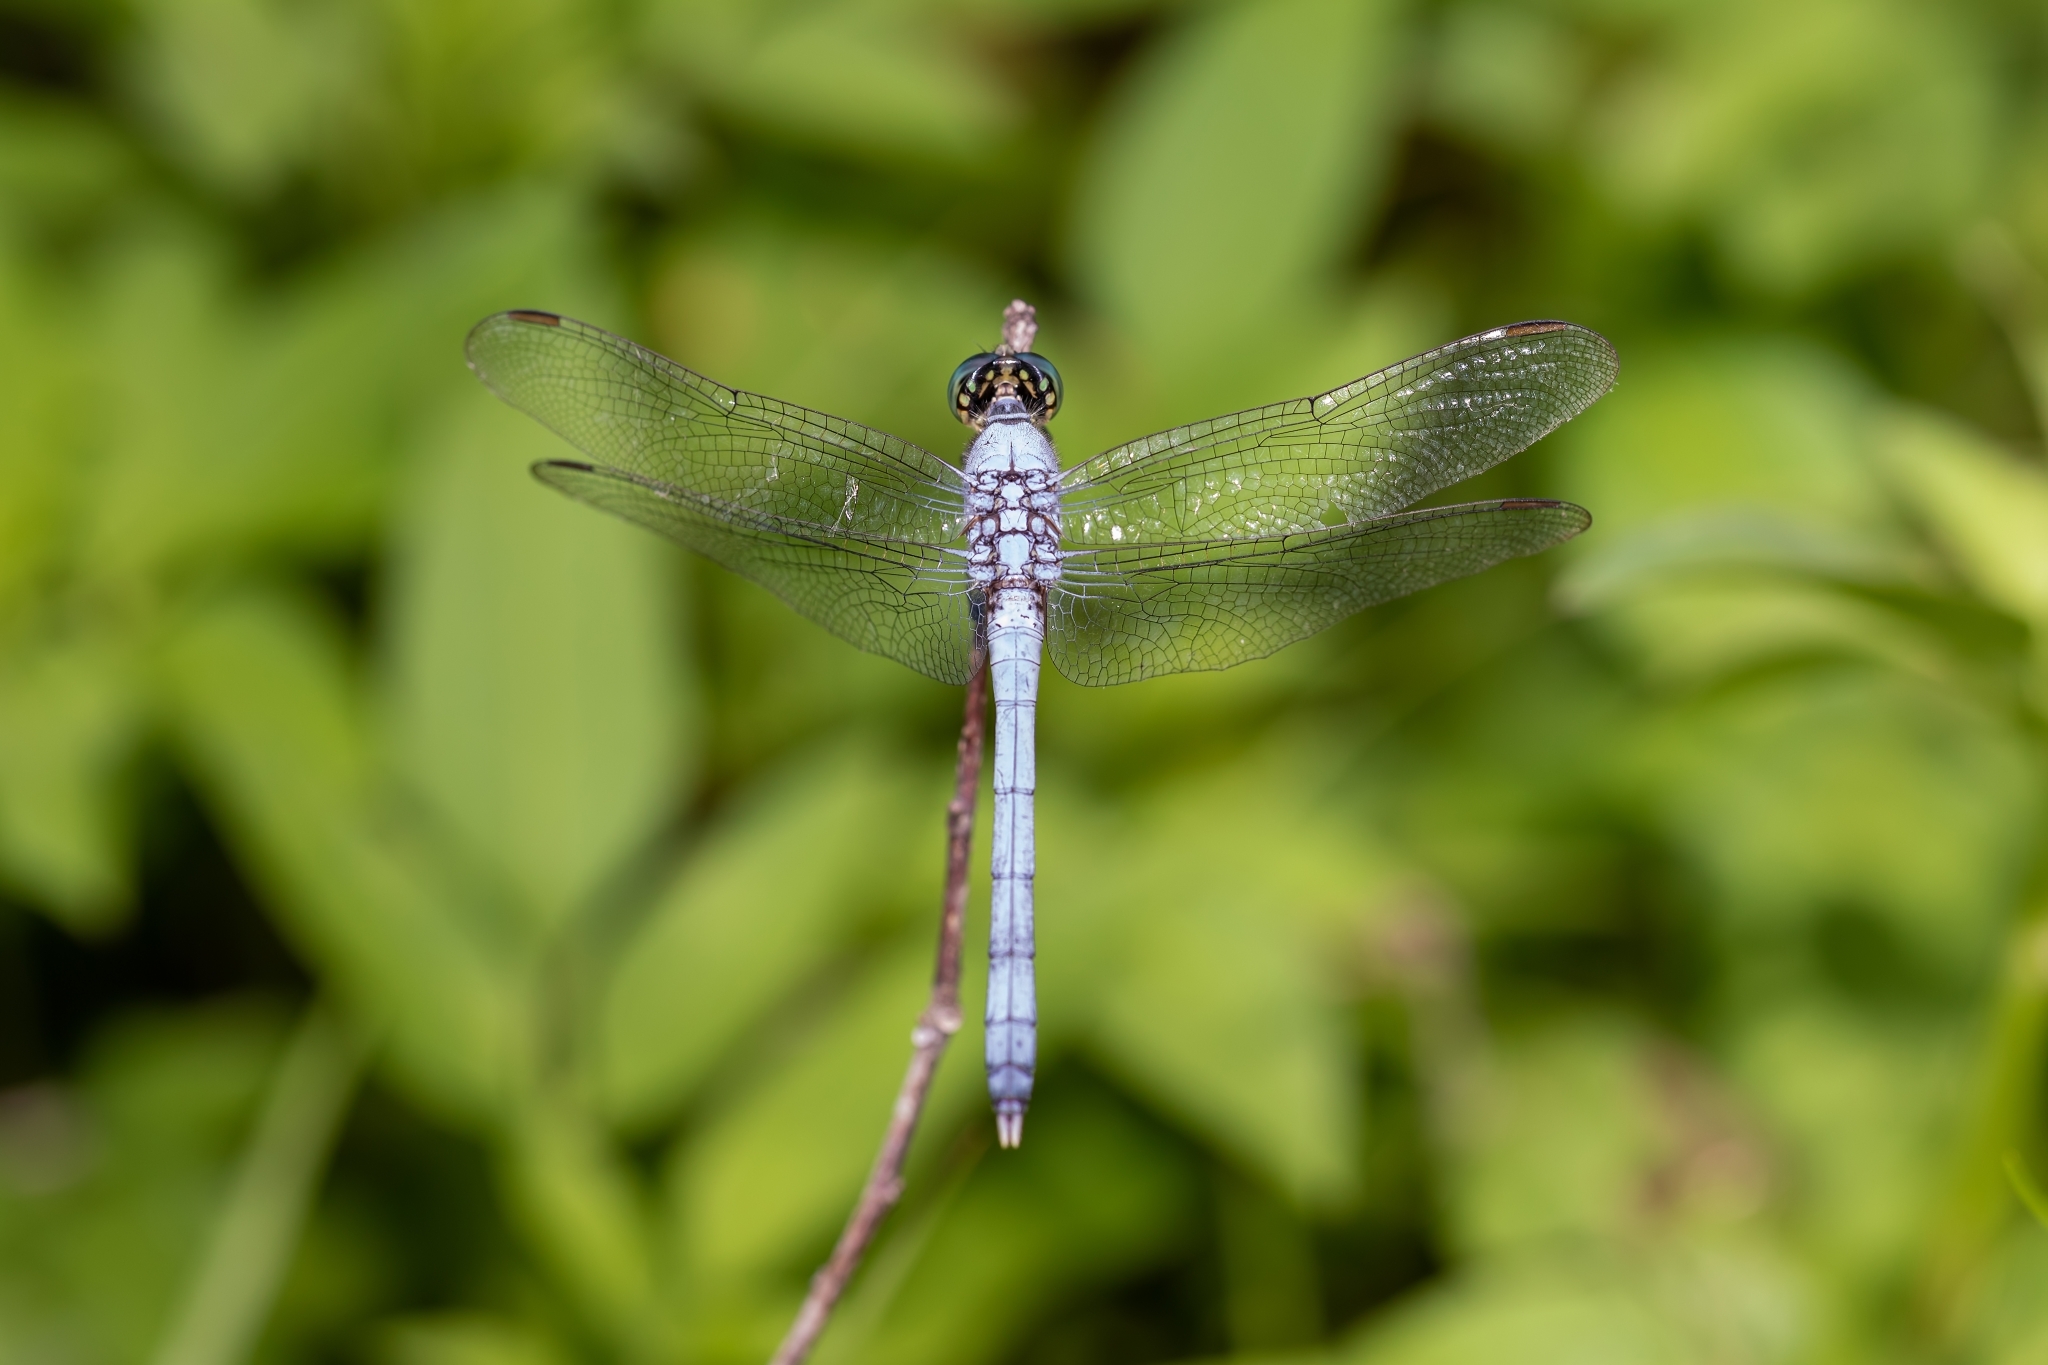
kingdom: Animalia
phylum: Arthropoda
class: Insecta
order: Odonata
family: Libellulidae
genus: Erythemis
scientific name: Erythemis simplicicollis
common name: Eastern pondhawk
